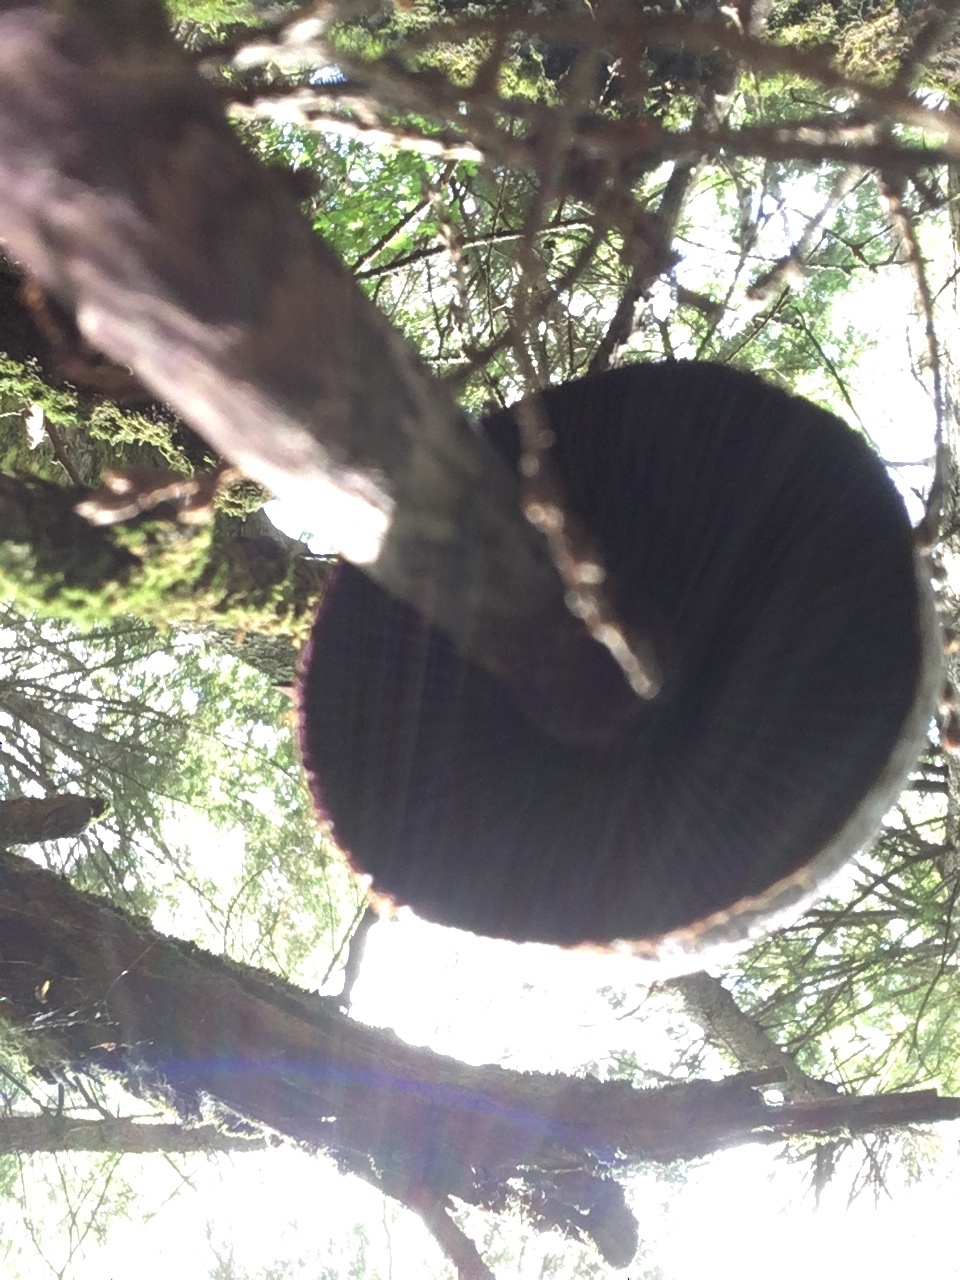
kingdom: Fungi
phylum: Basidiomycota
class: Agaricomycetes
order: Agaricales
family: Cortinariaceae
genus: Cortinarius
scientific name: Cortinarius violaceus
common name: Violet webcap
